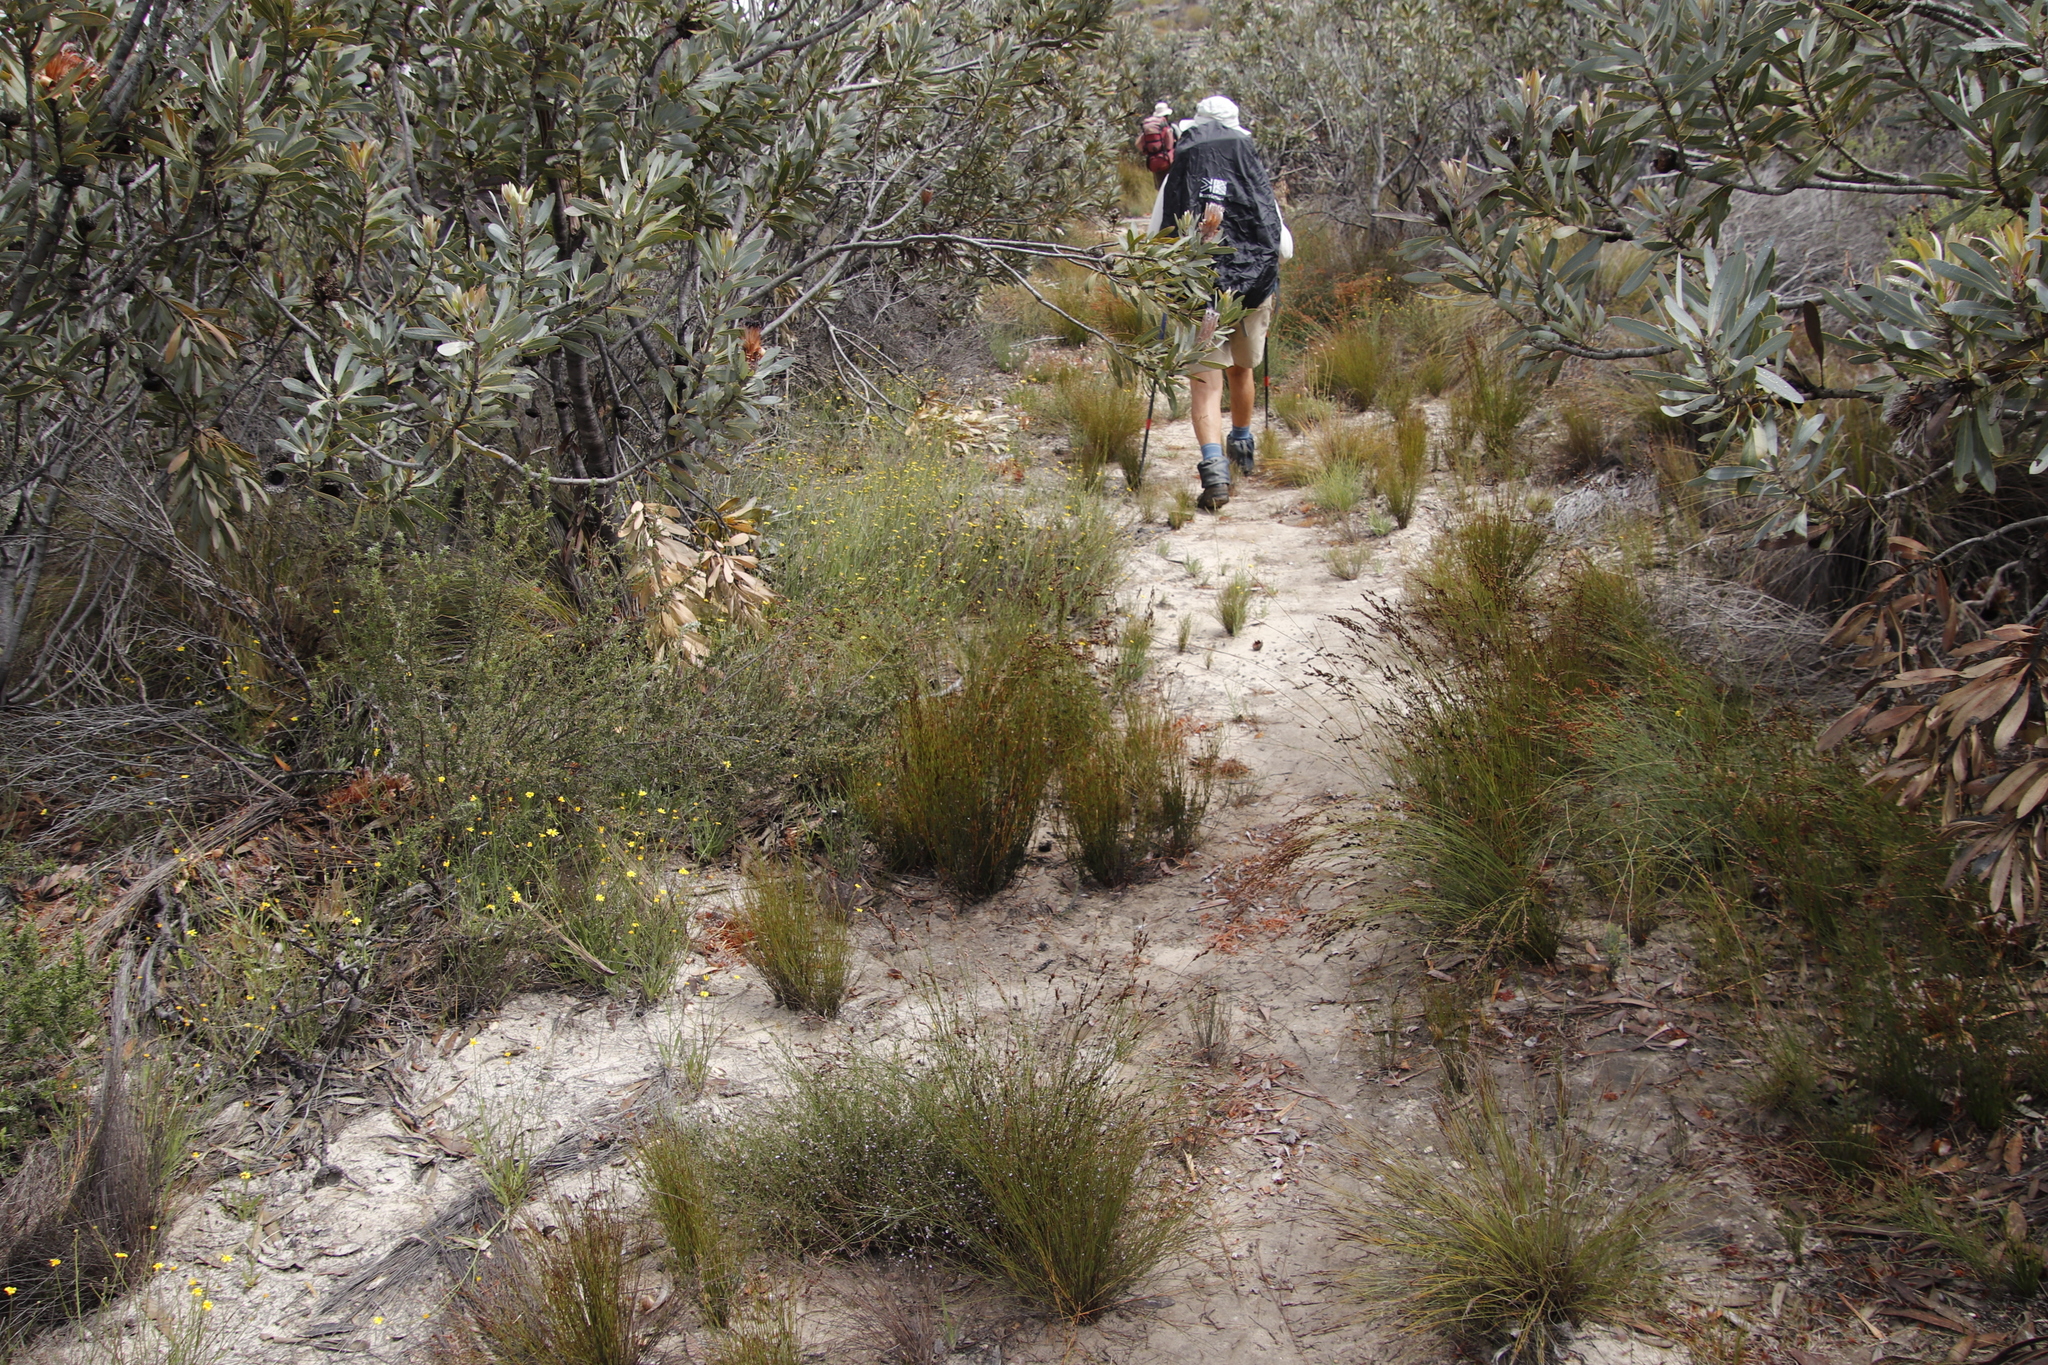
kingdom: Plantae
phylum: Tracheophyta
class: Magnoliopsida
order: Proteales
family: Proteaceae
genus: Protea
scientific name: Protea laurifolia
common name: Grey-leaf sugarbsh
